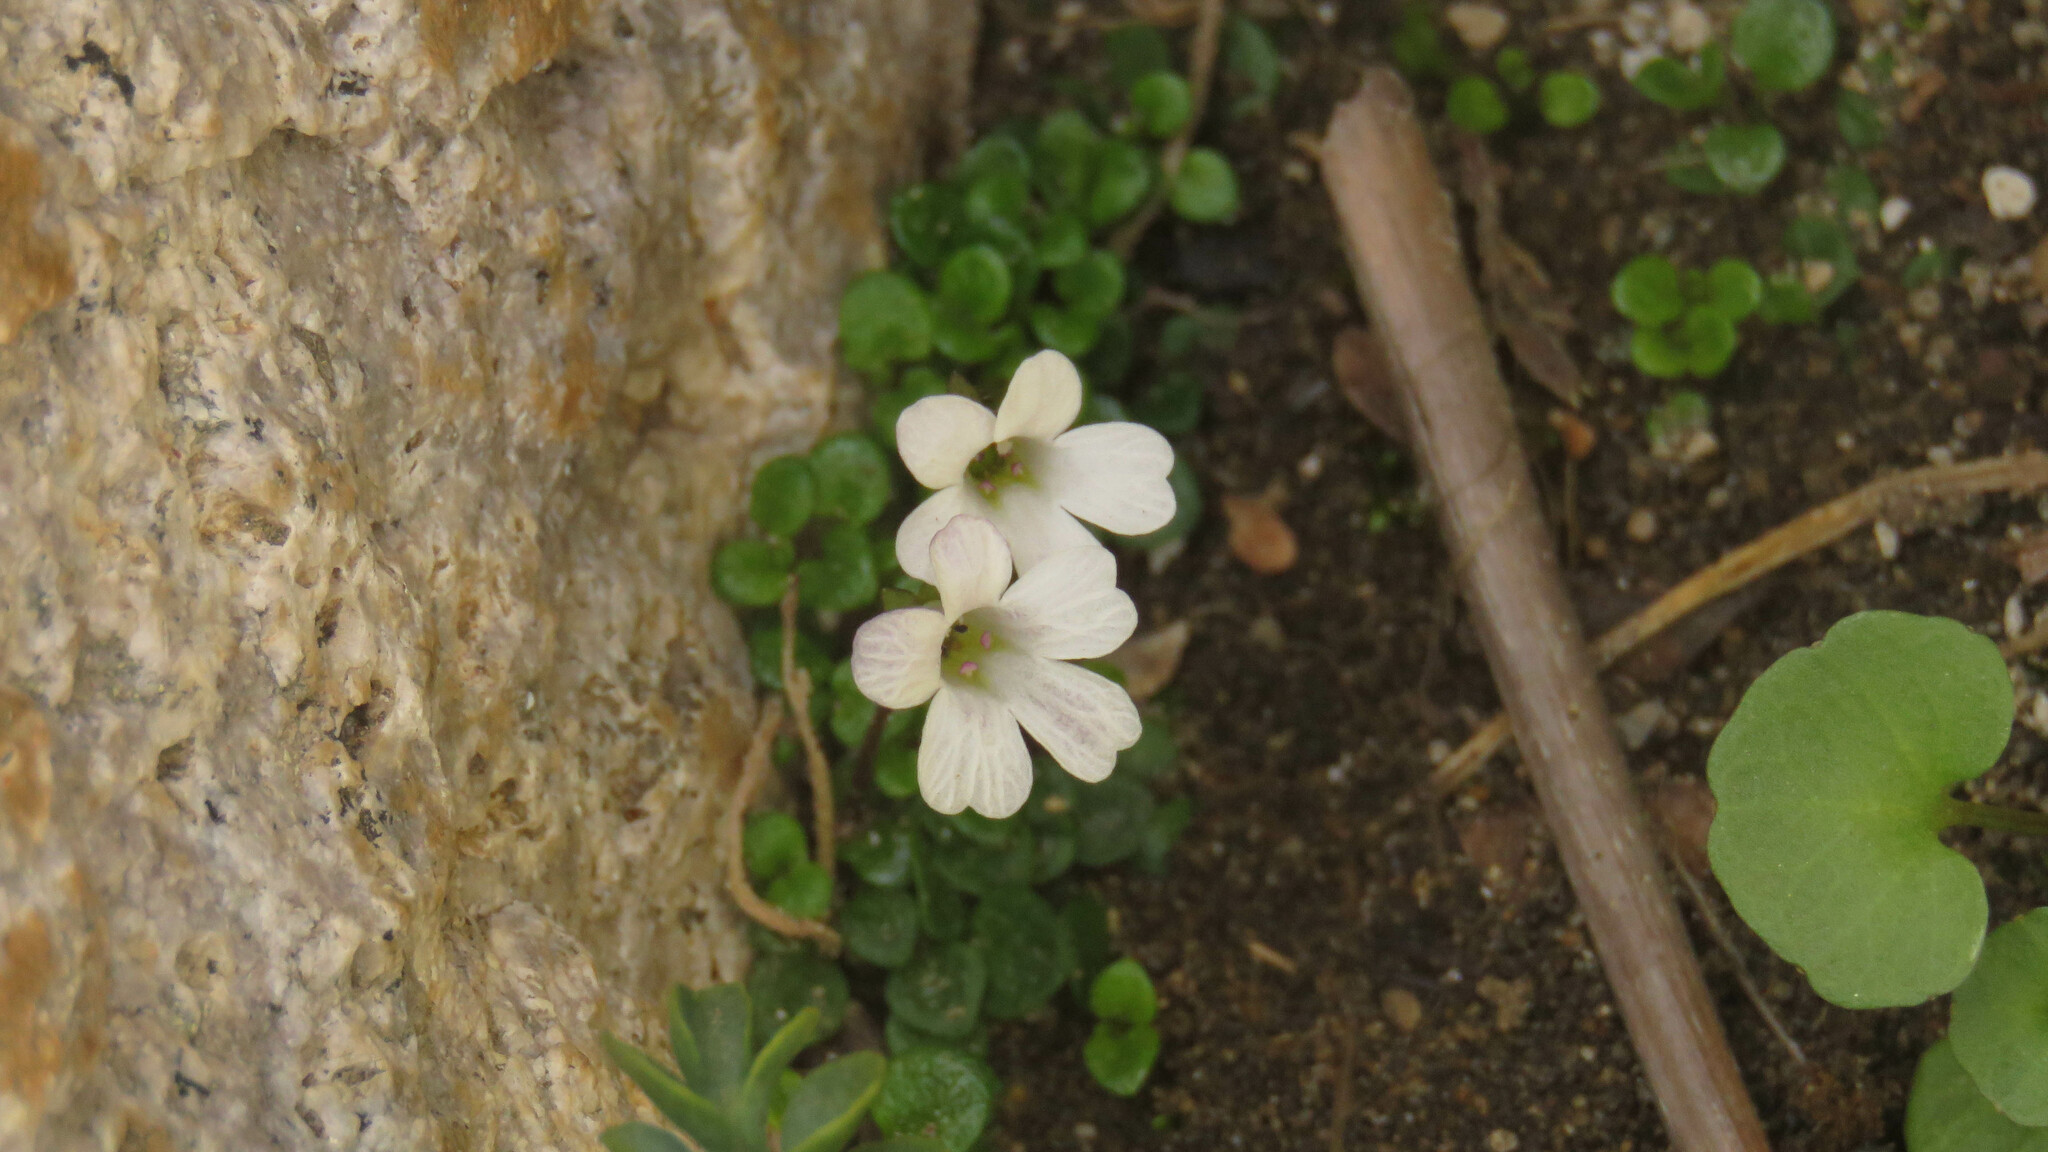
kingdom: Plantae
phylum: Tracheophyta
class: Magnoliopsida
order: Lamiales
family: Plantaginaceae
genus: Ourisia
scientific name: Ourisia pygmaea
